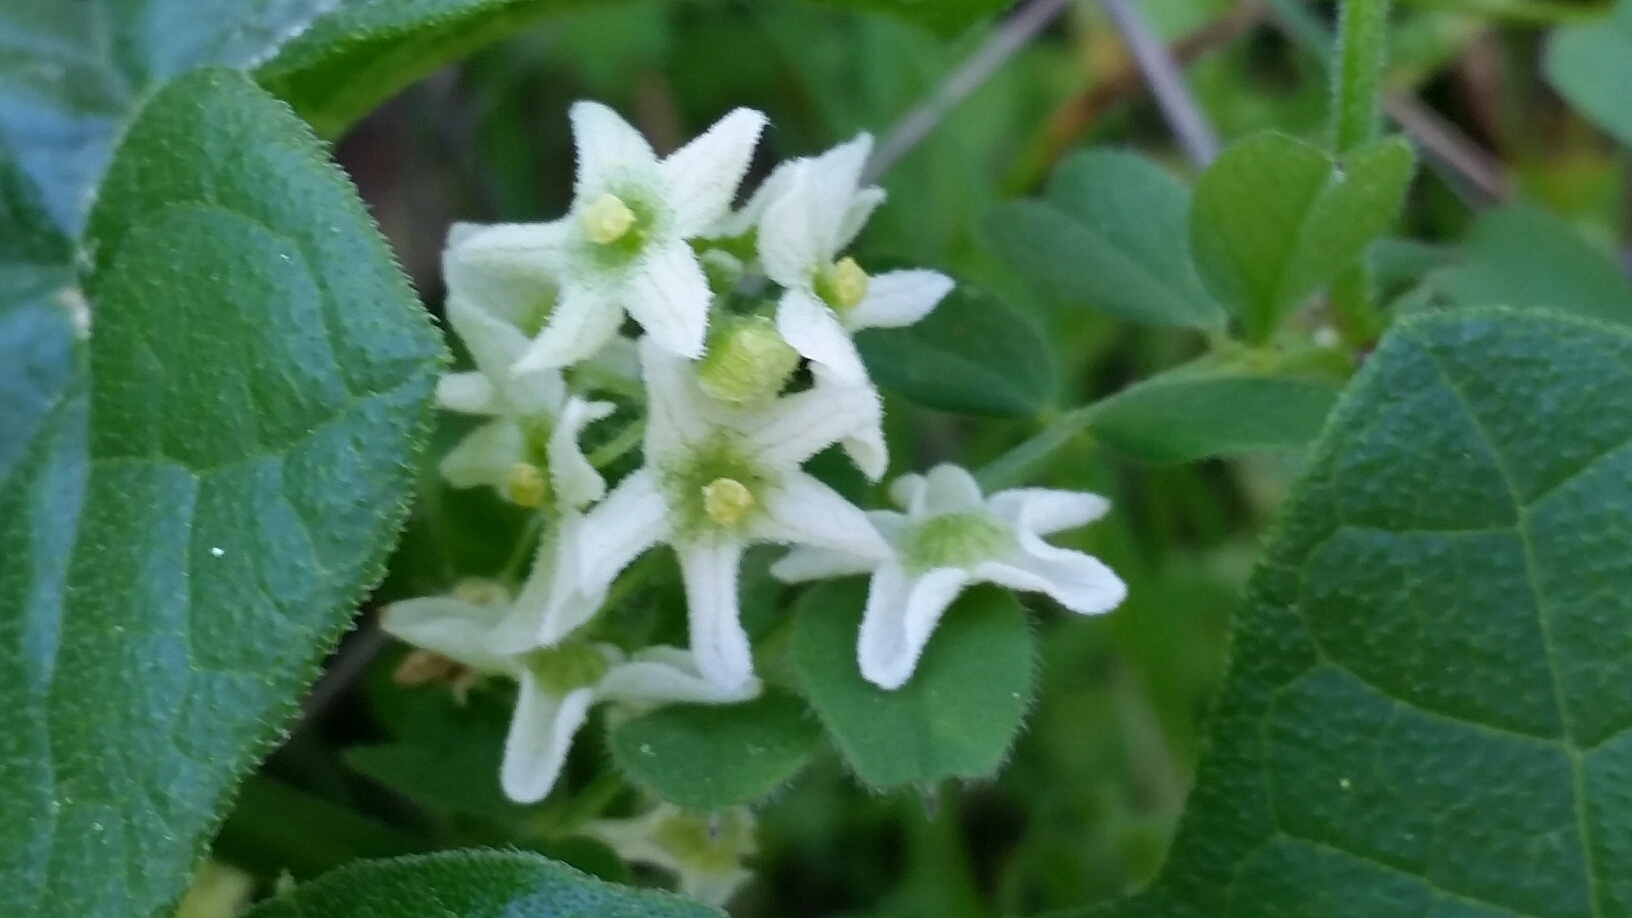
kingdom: Plantae
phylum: Tracheophyta
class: Magnoliopsida
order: Cucurbitales
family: Cucurbitaceae
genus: Marah
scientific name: Marah fabacea
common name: California manroot
